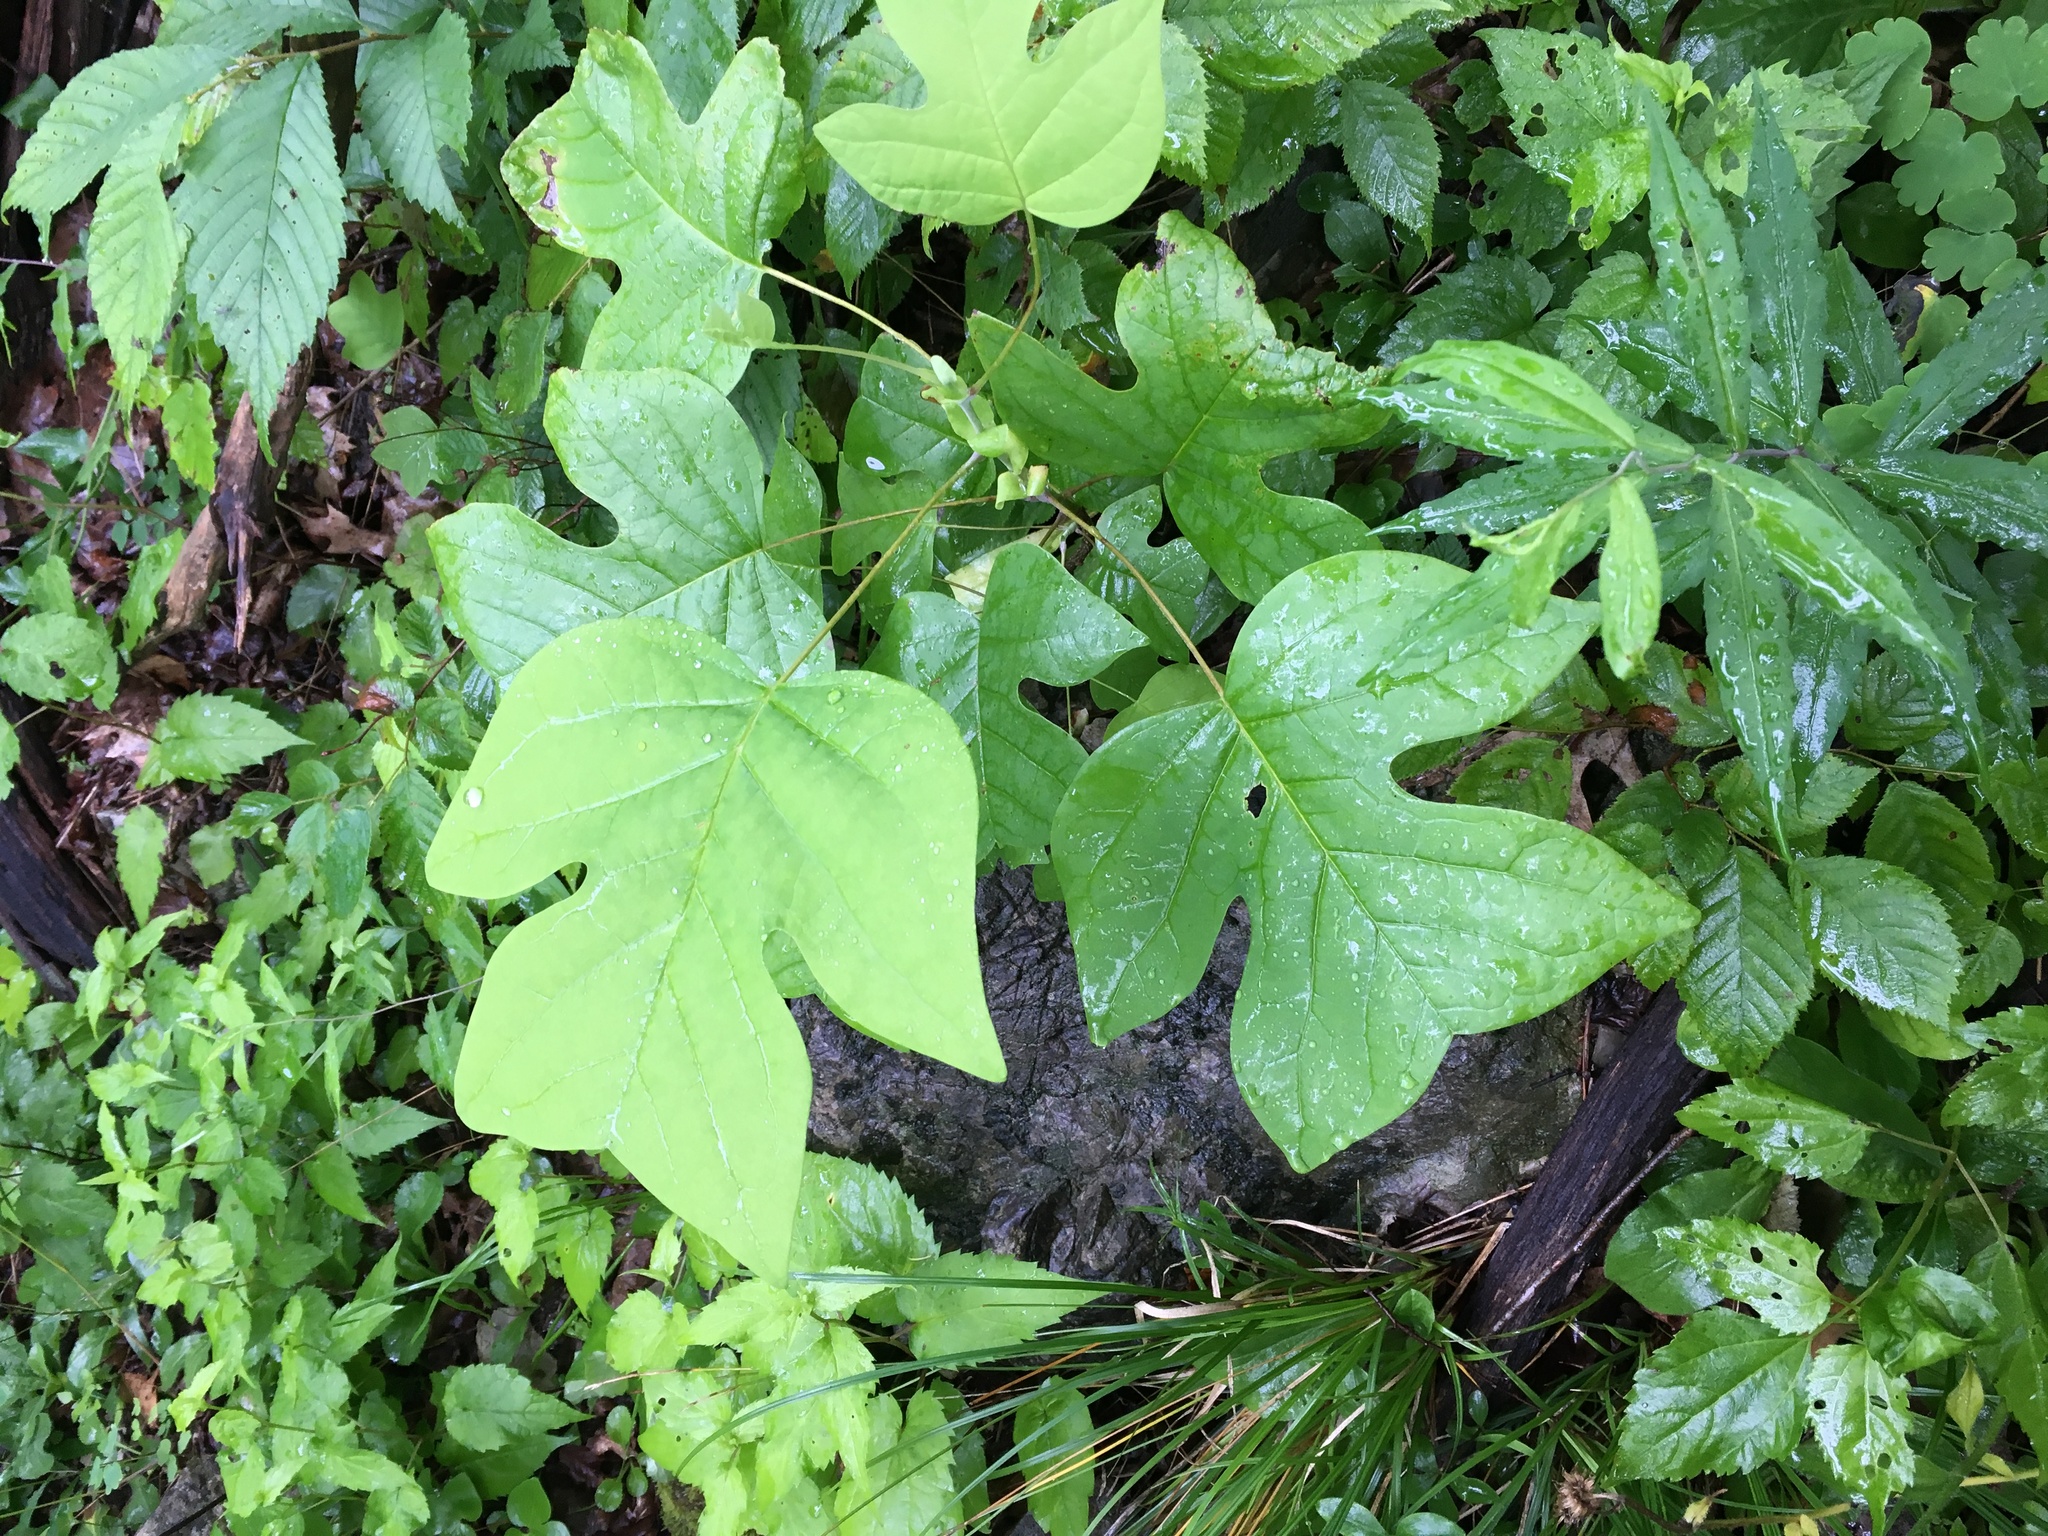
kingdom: Plantae
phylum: Tracheophyta
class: Magnoliopsida
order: Magnoliales
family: Magnoliaceae
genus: Liriodendron
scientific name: Liriodendron tulipifera
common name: Tulip tree
